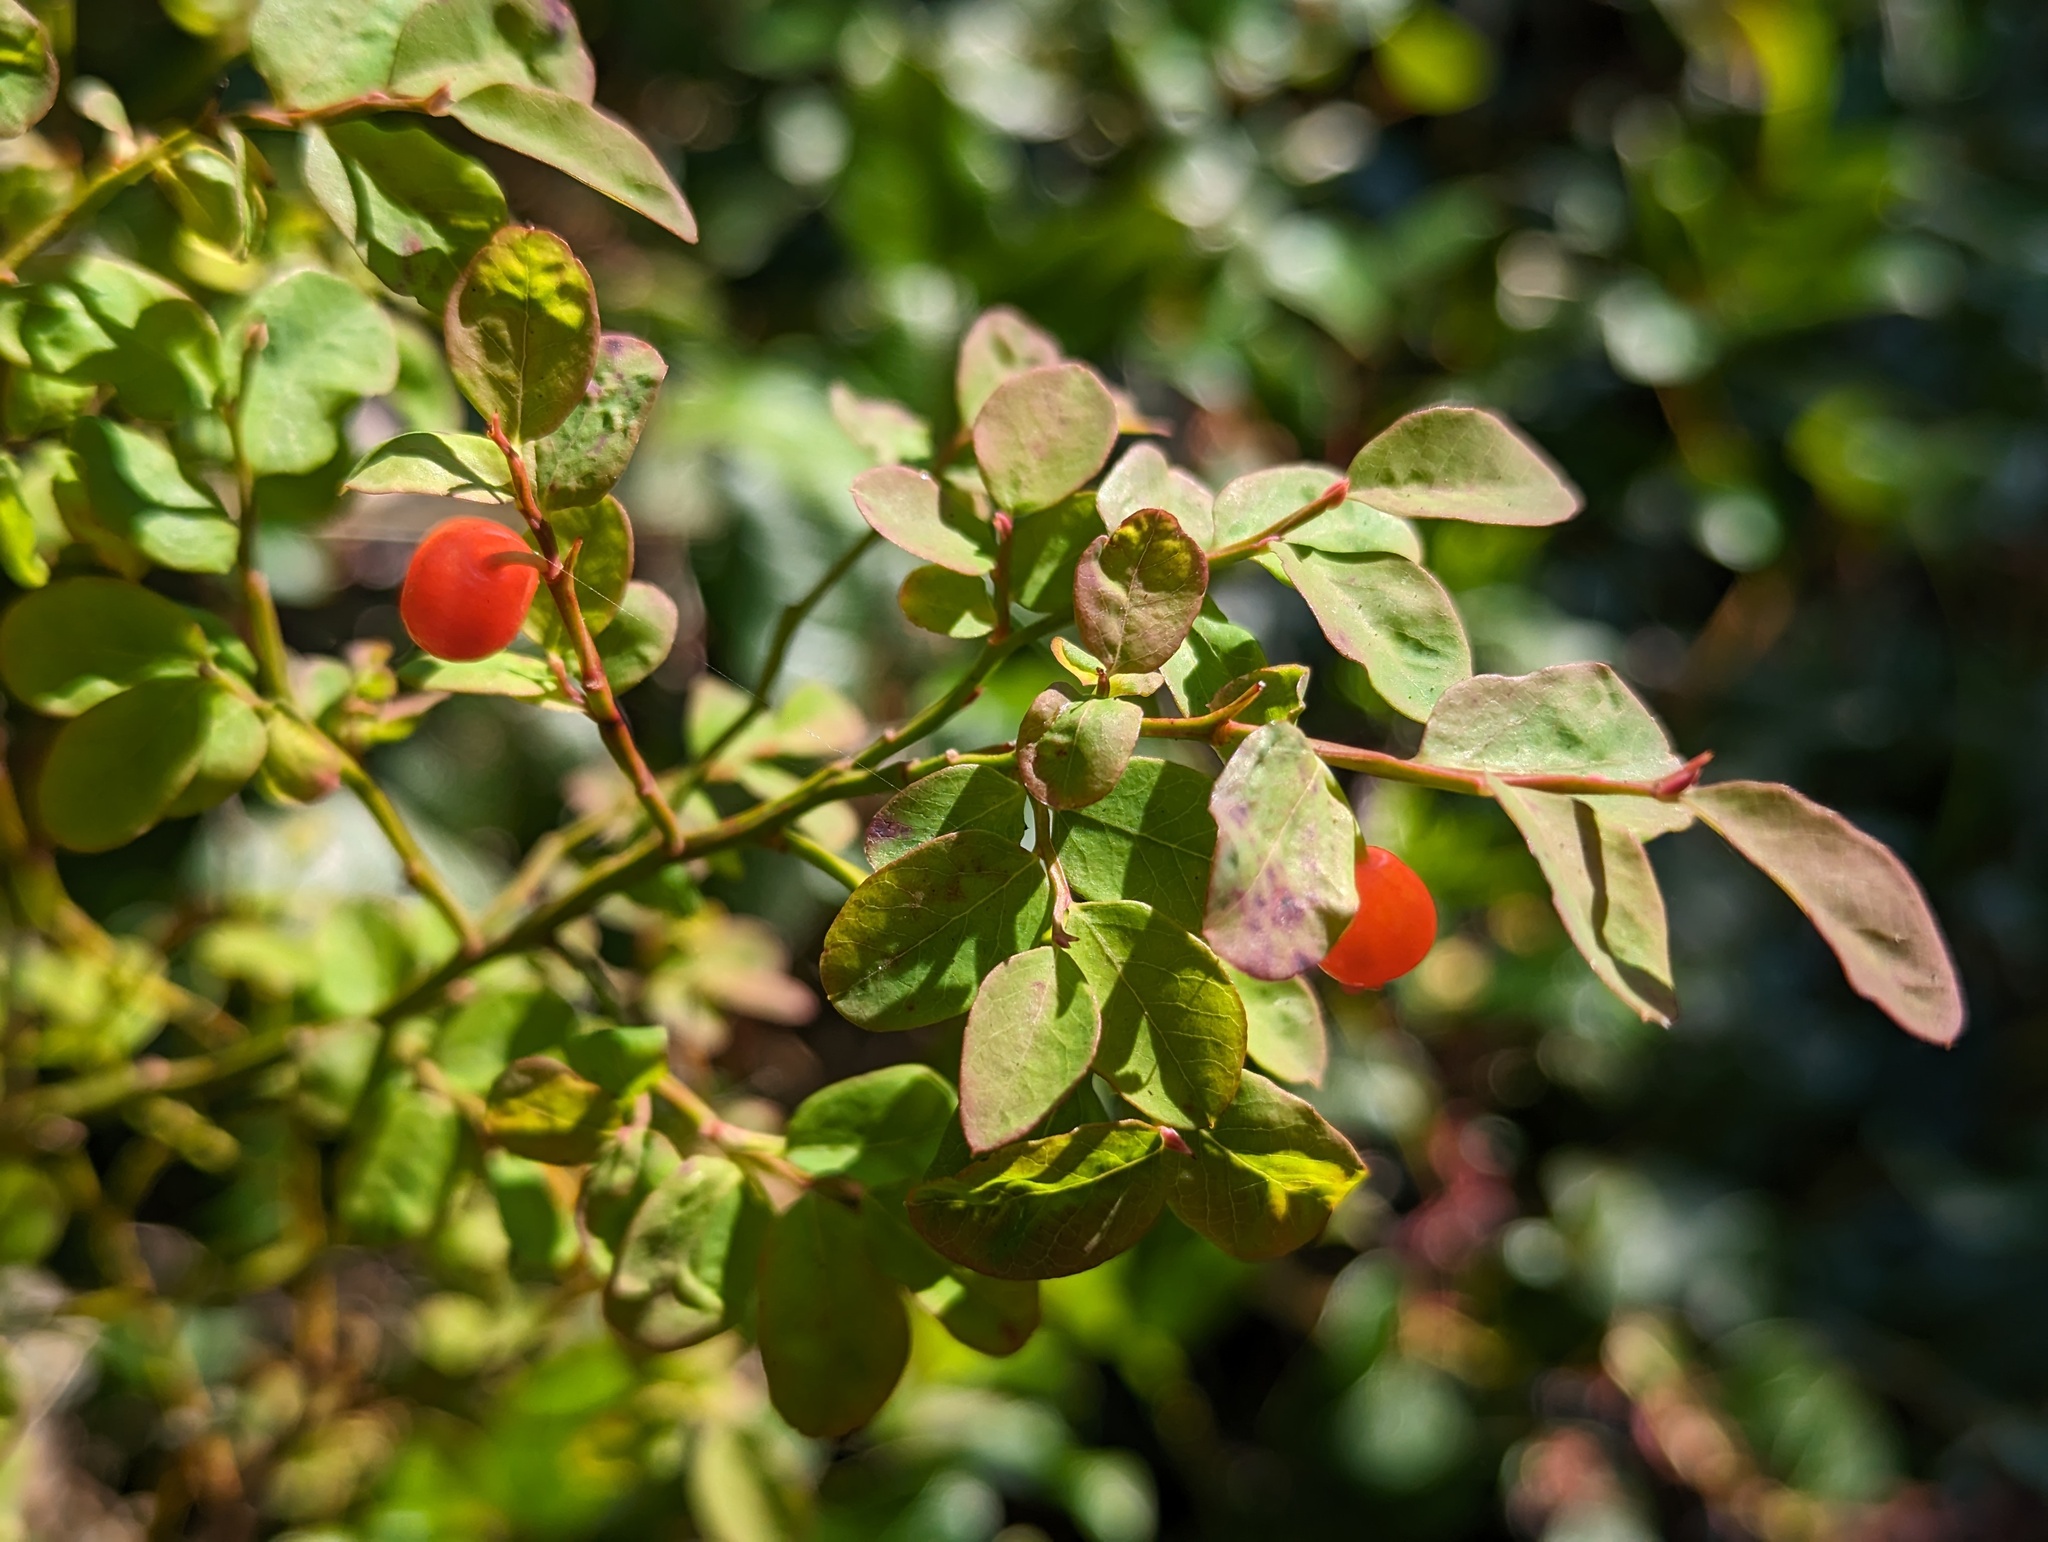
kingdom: Plantae
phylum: Tracheophyta
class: Magnoliopsida
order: Ericales
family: Ericaceae
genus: Vaccinium
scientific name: Vaccinium parvifolium
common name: Red-huckleberry
